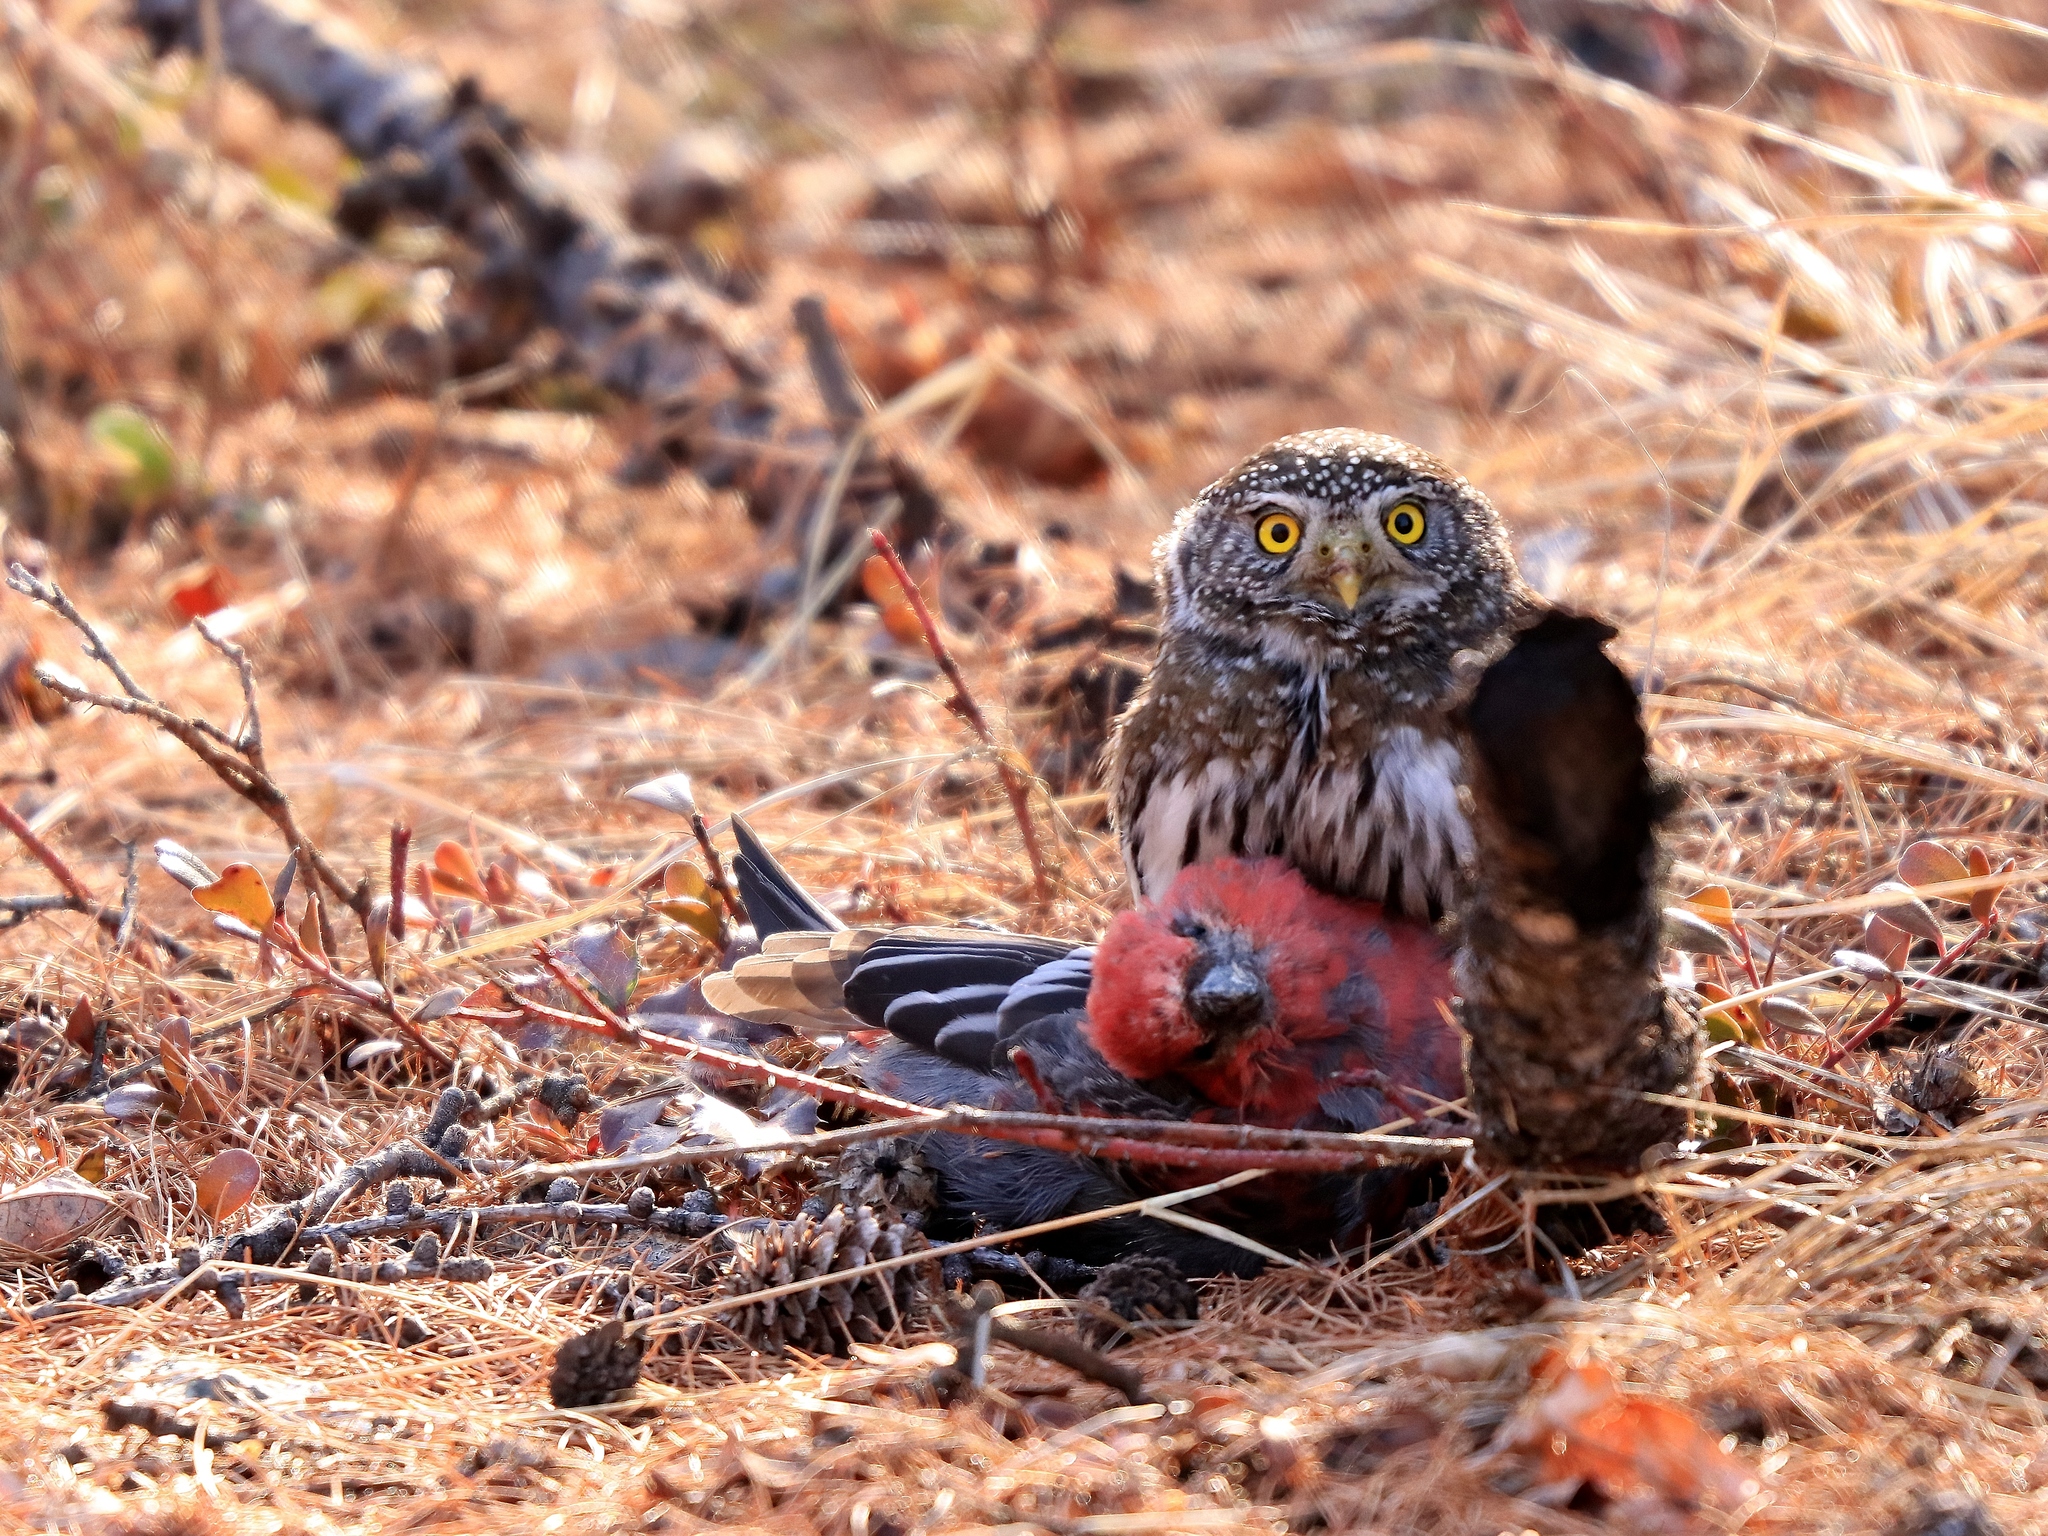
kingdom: Animalia
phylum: Chordata
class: Aves
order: Passeriformes
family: Fringillidae
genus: Pinicola
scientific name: Pinicola enucleator
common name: Pine grosbeak
